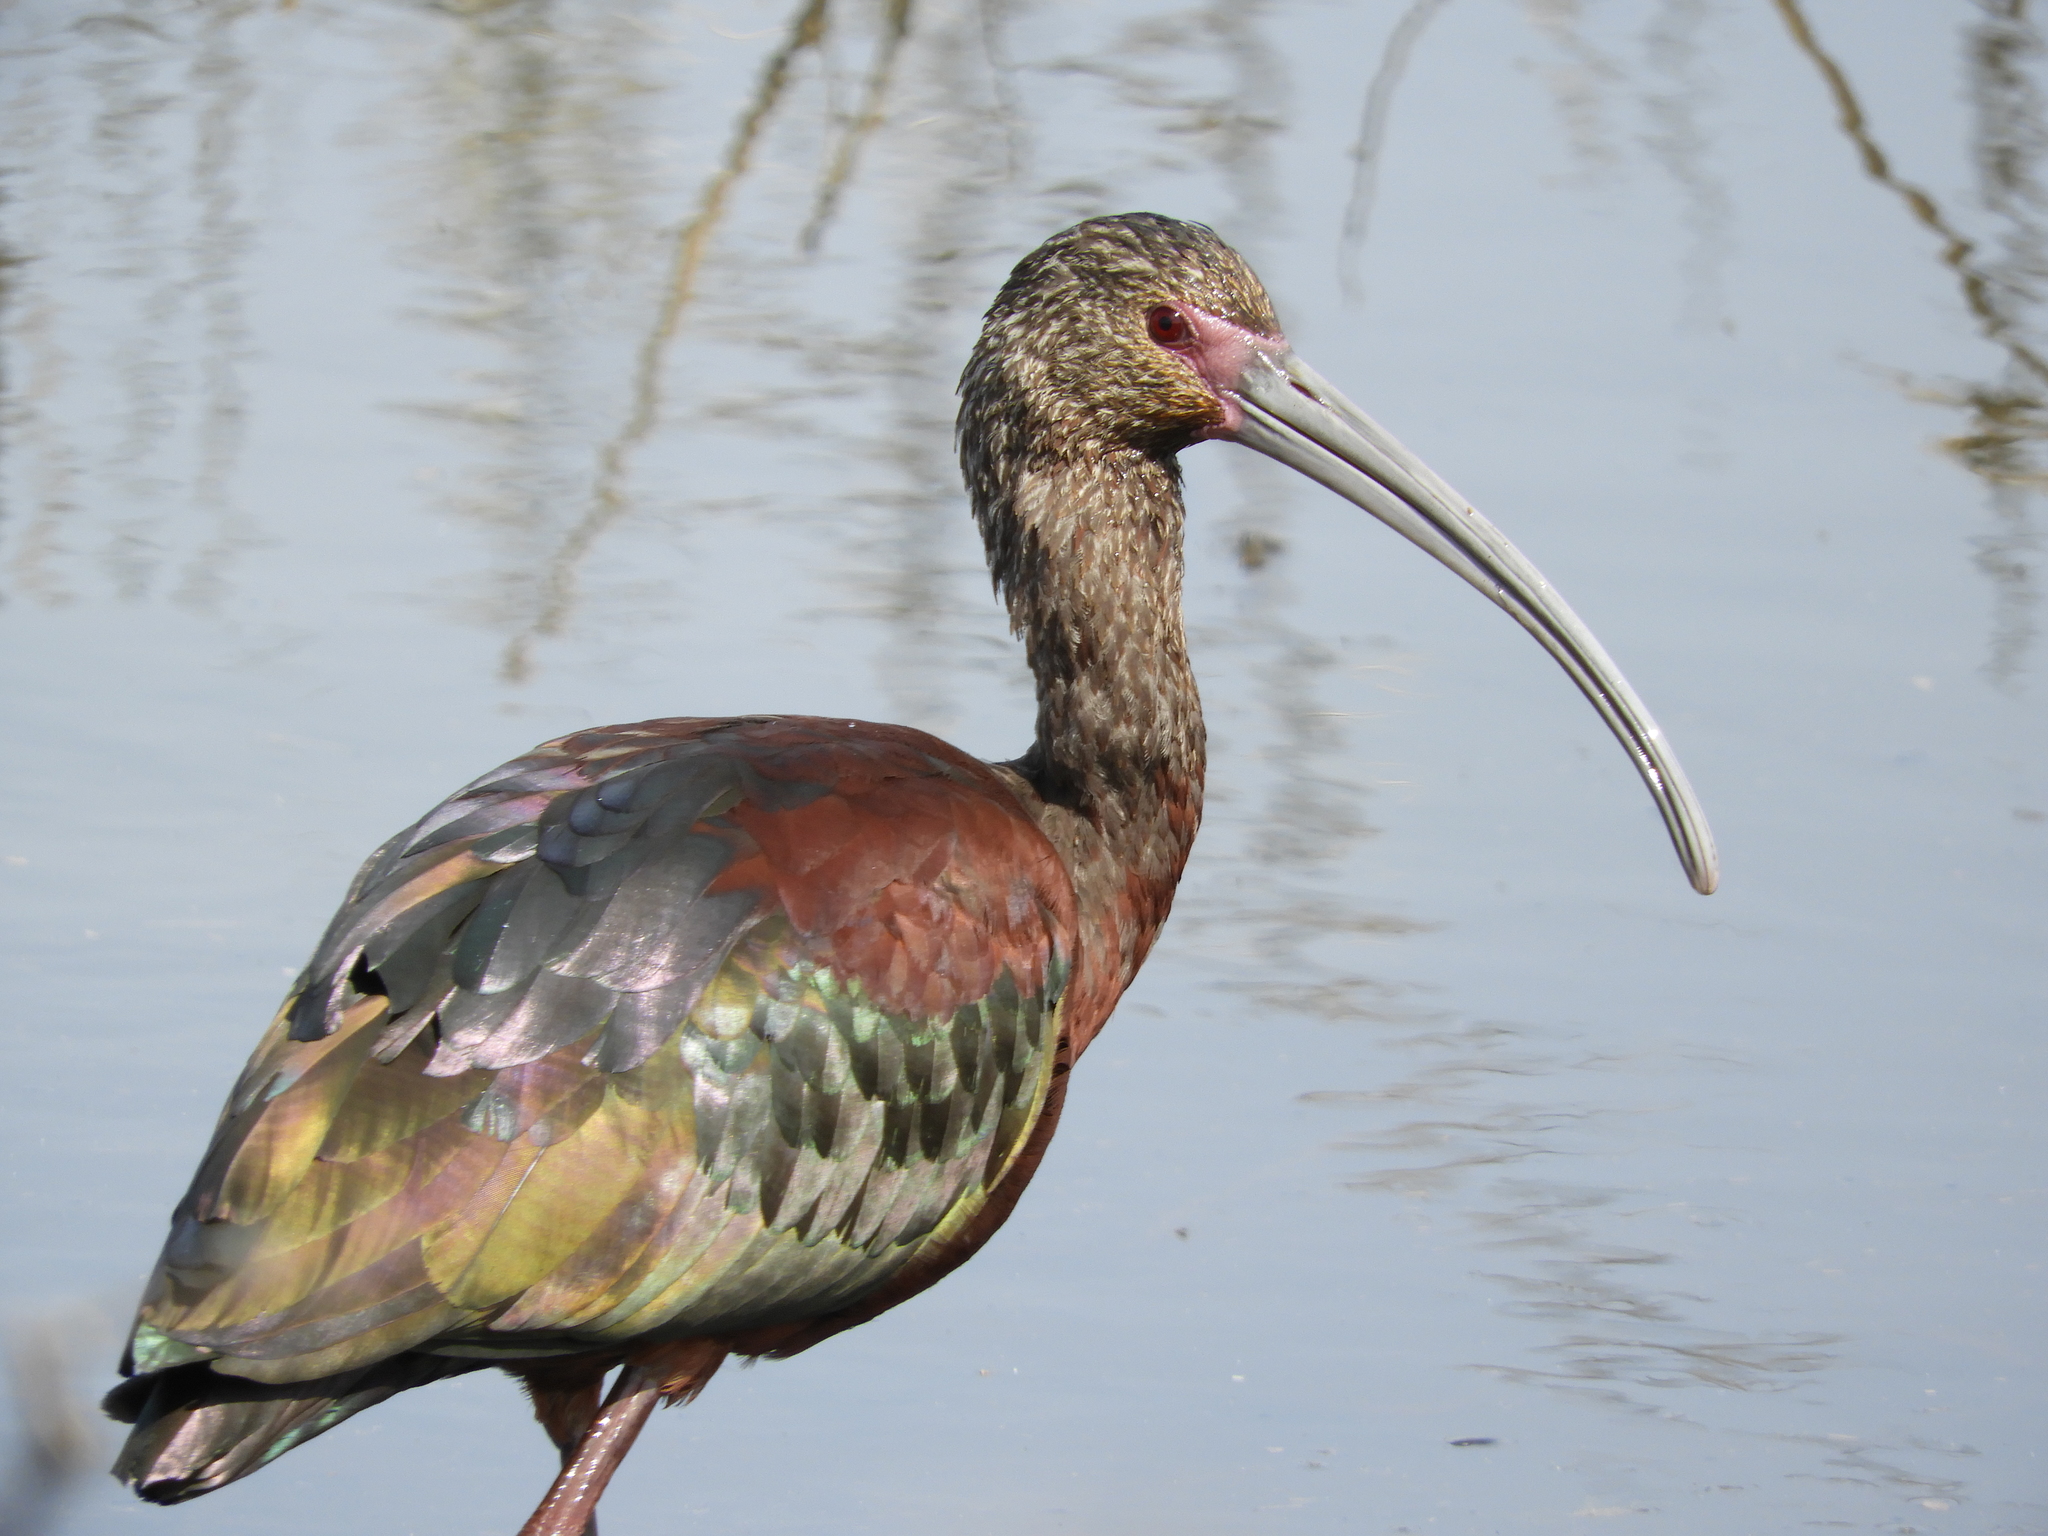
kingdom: Animalia
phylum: Chordata
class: Aves
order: Pelecaniformes
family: Threskiornithidae
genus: Plegadis
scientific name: Plegadis chihi
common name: White-faced ibis
